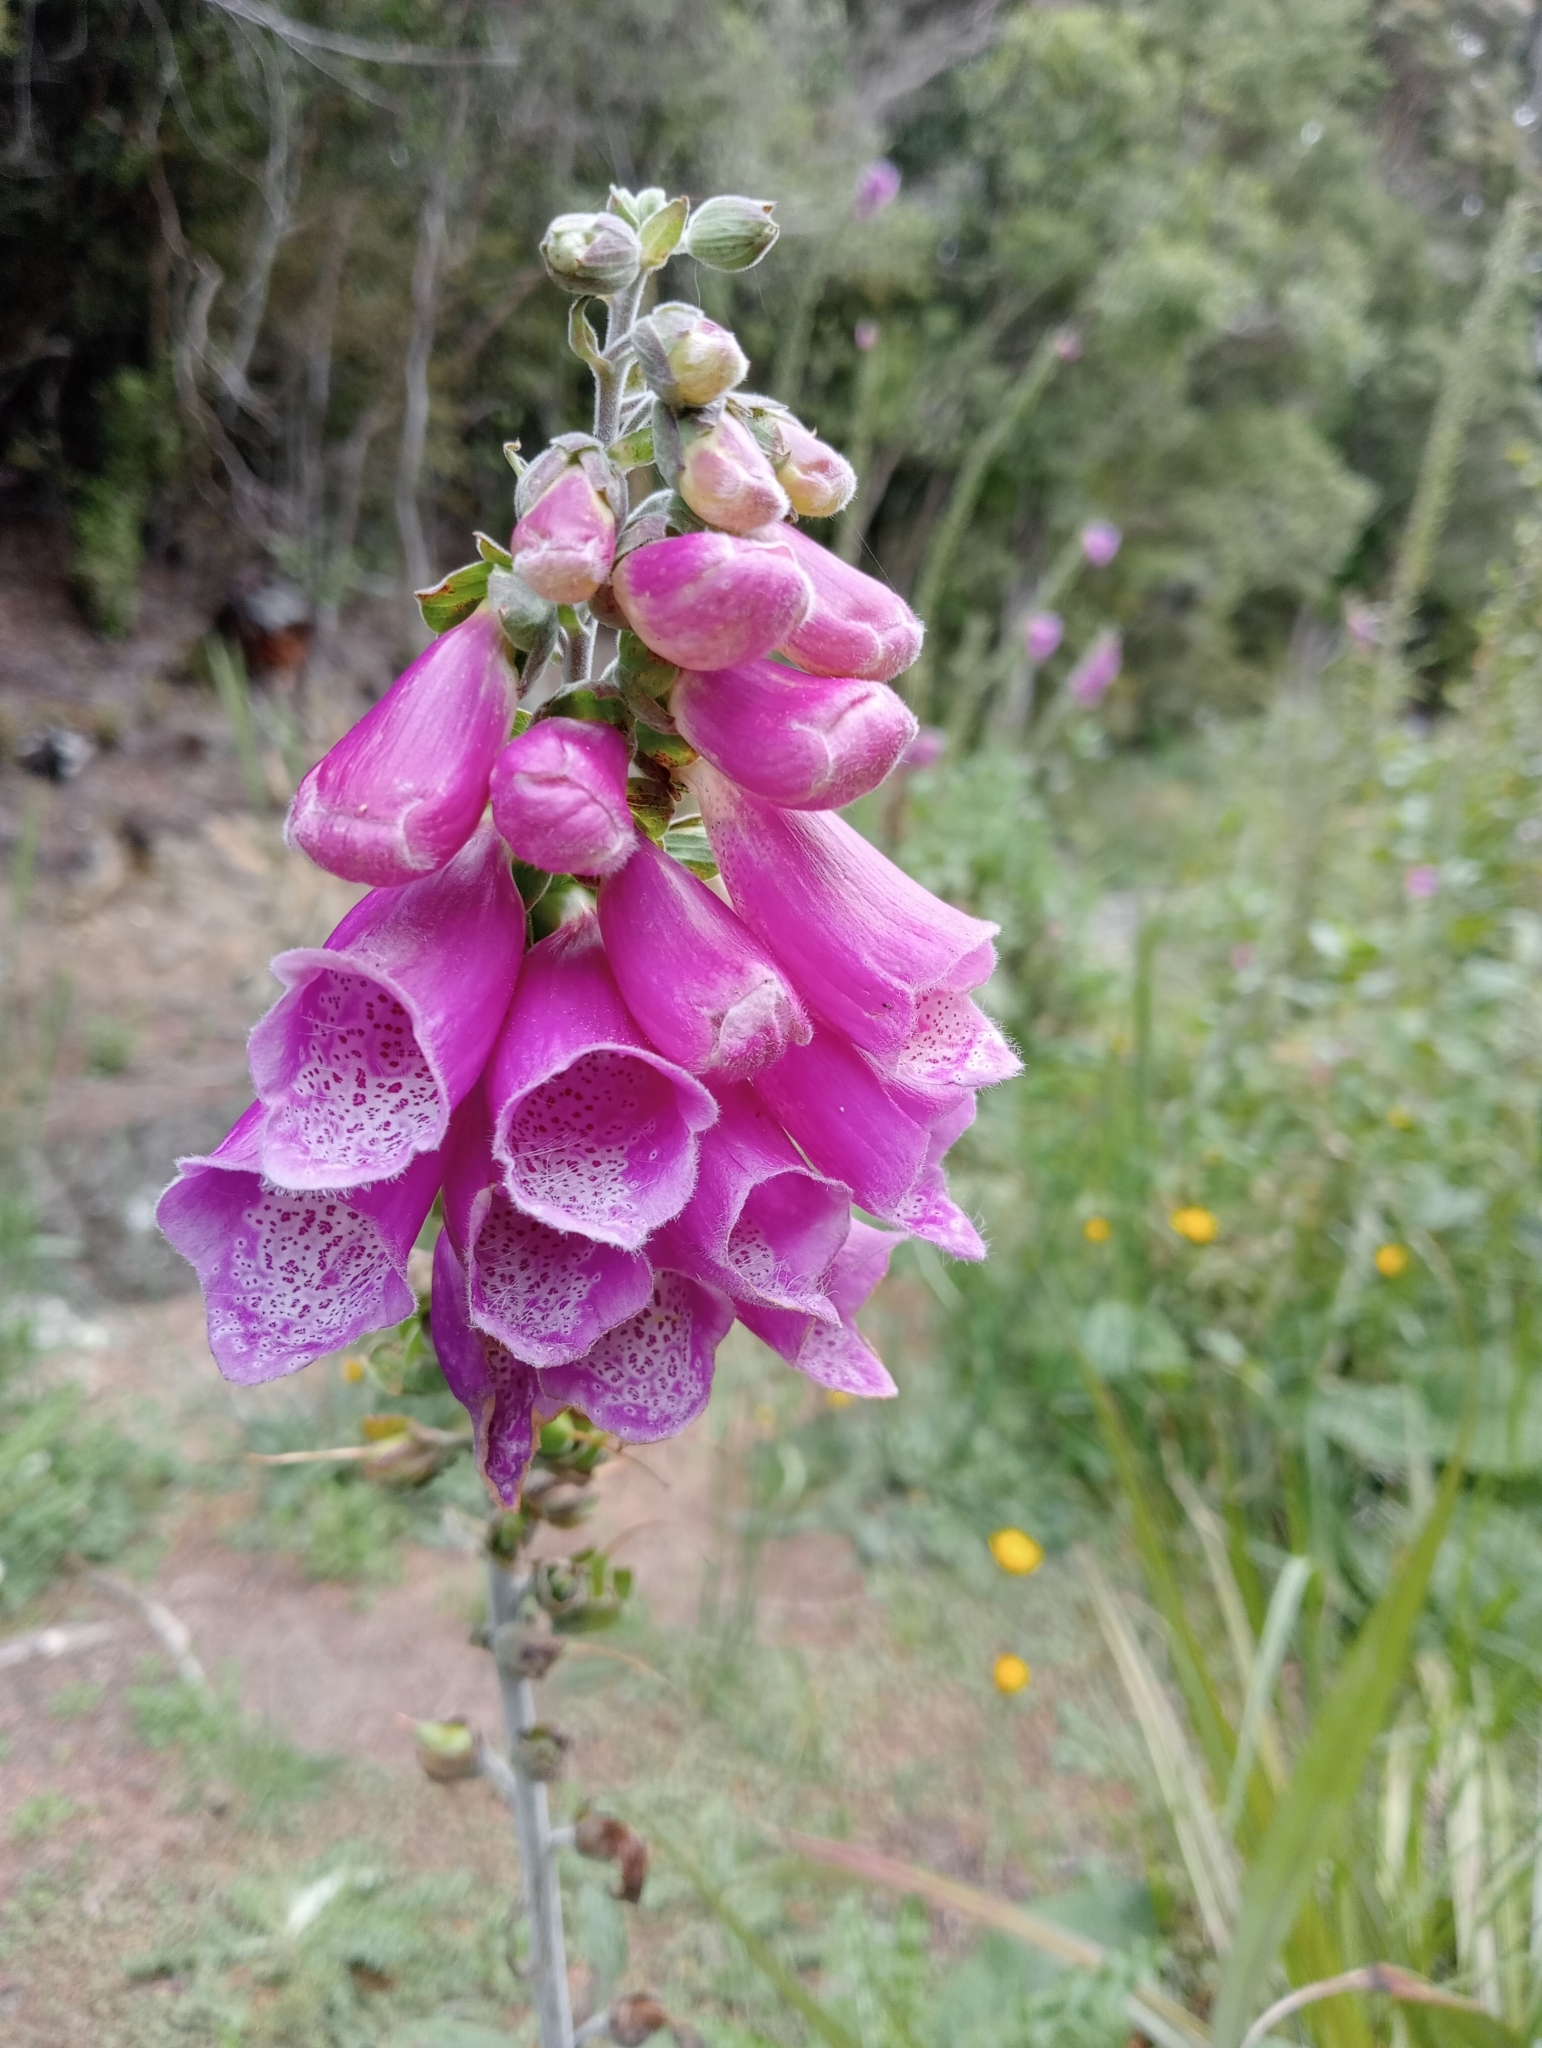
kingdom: Plantae
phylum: Tracheophyta
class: Magnoliopsida
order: Lamiales
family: Plantaginaceae
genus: Digitalis
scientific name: Digitalis purpurea
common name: Foxglove
